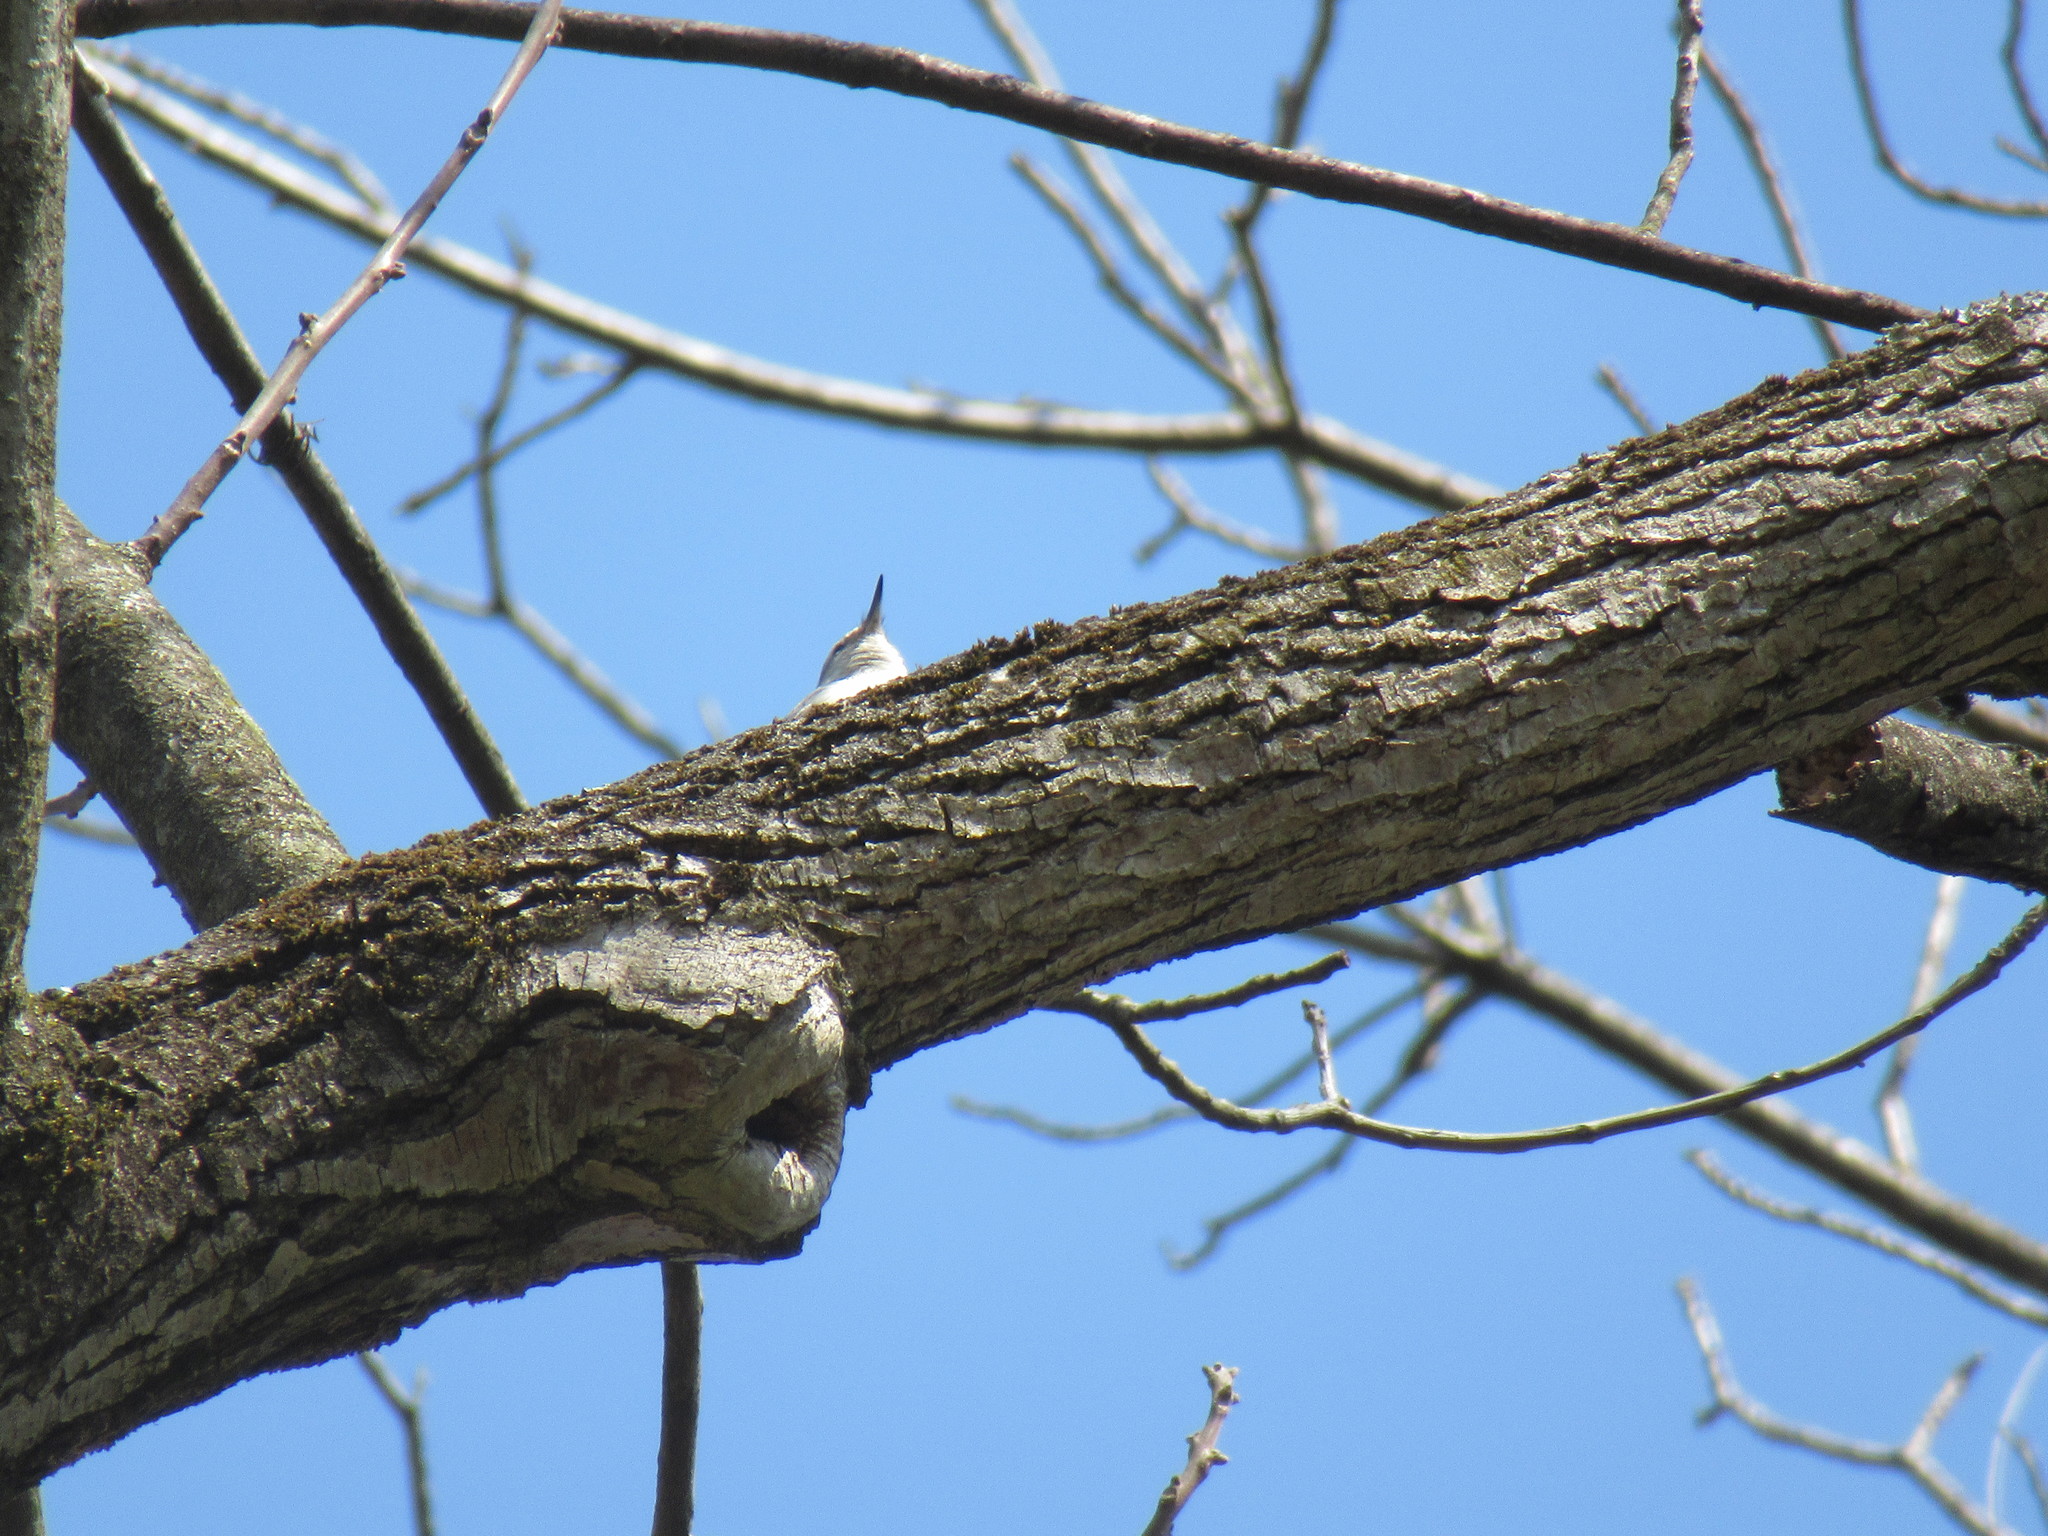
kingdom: Animalia
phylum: Chordata
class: Aves
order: Passeriformes
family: Sittidae
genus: Sitta
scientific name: Sitta carolinensis
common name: White-breasted nuthatch
